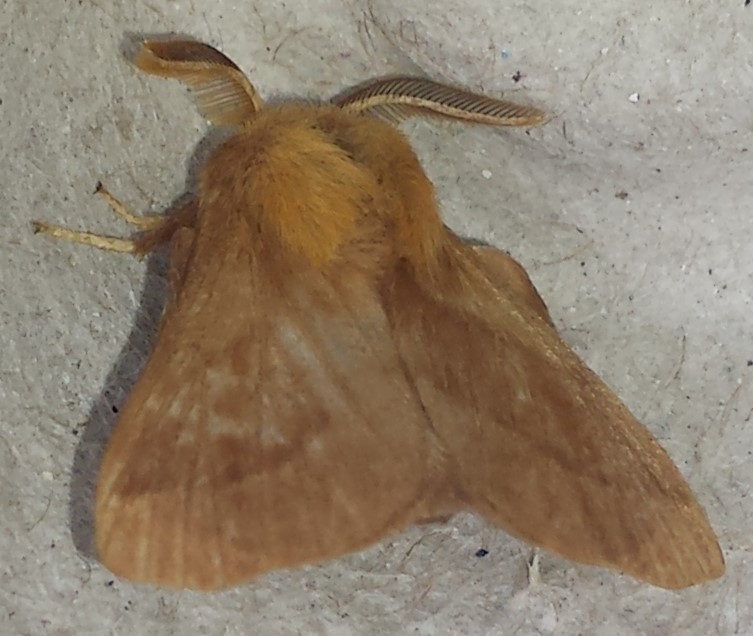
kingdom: Animalia
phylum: Arthropoda
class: Insecta
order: Lepidoptera
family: Lasiocampidae
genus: Malacosoma
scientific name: Malacosoma disstria
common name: Forest tent caterpillar
